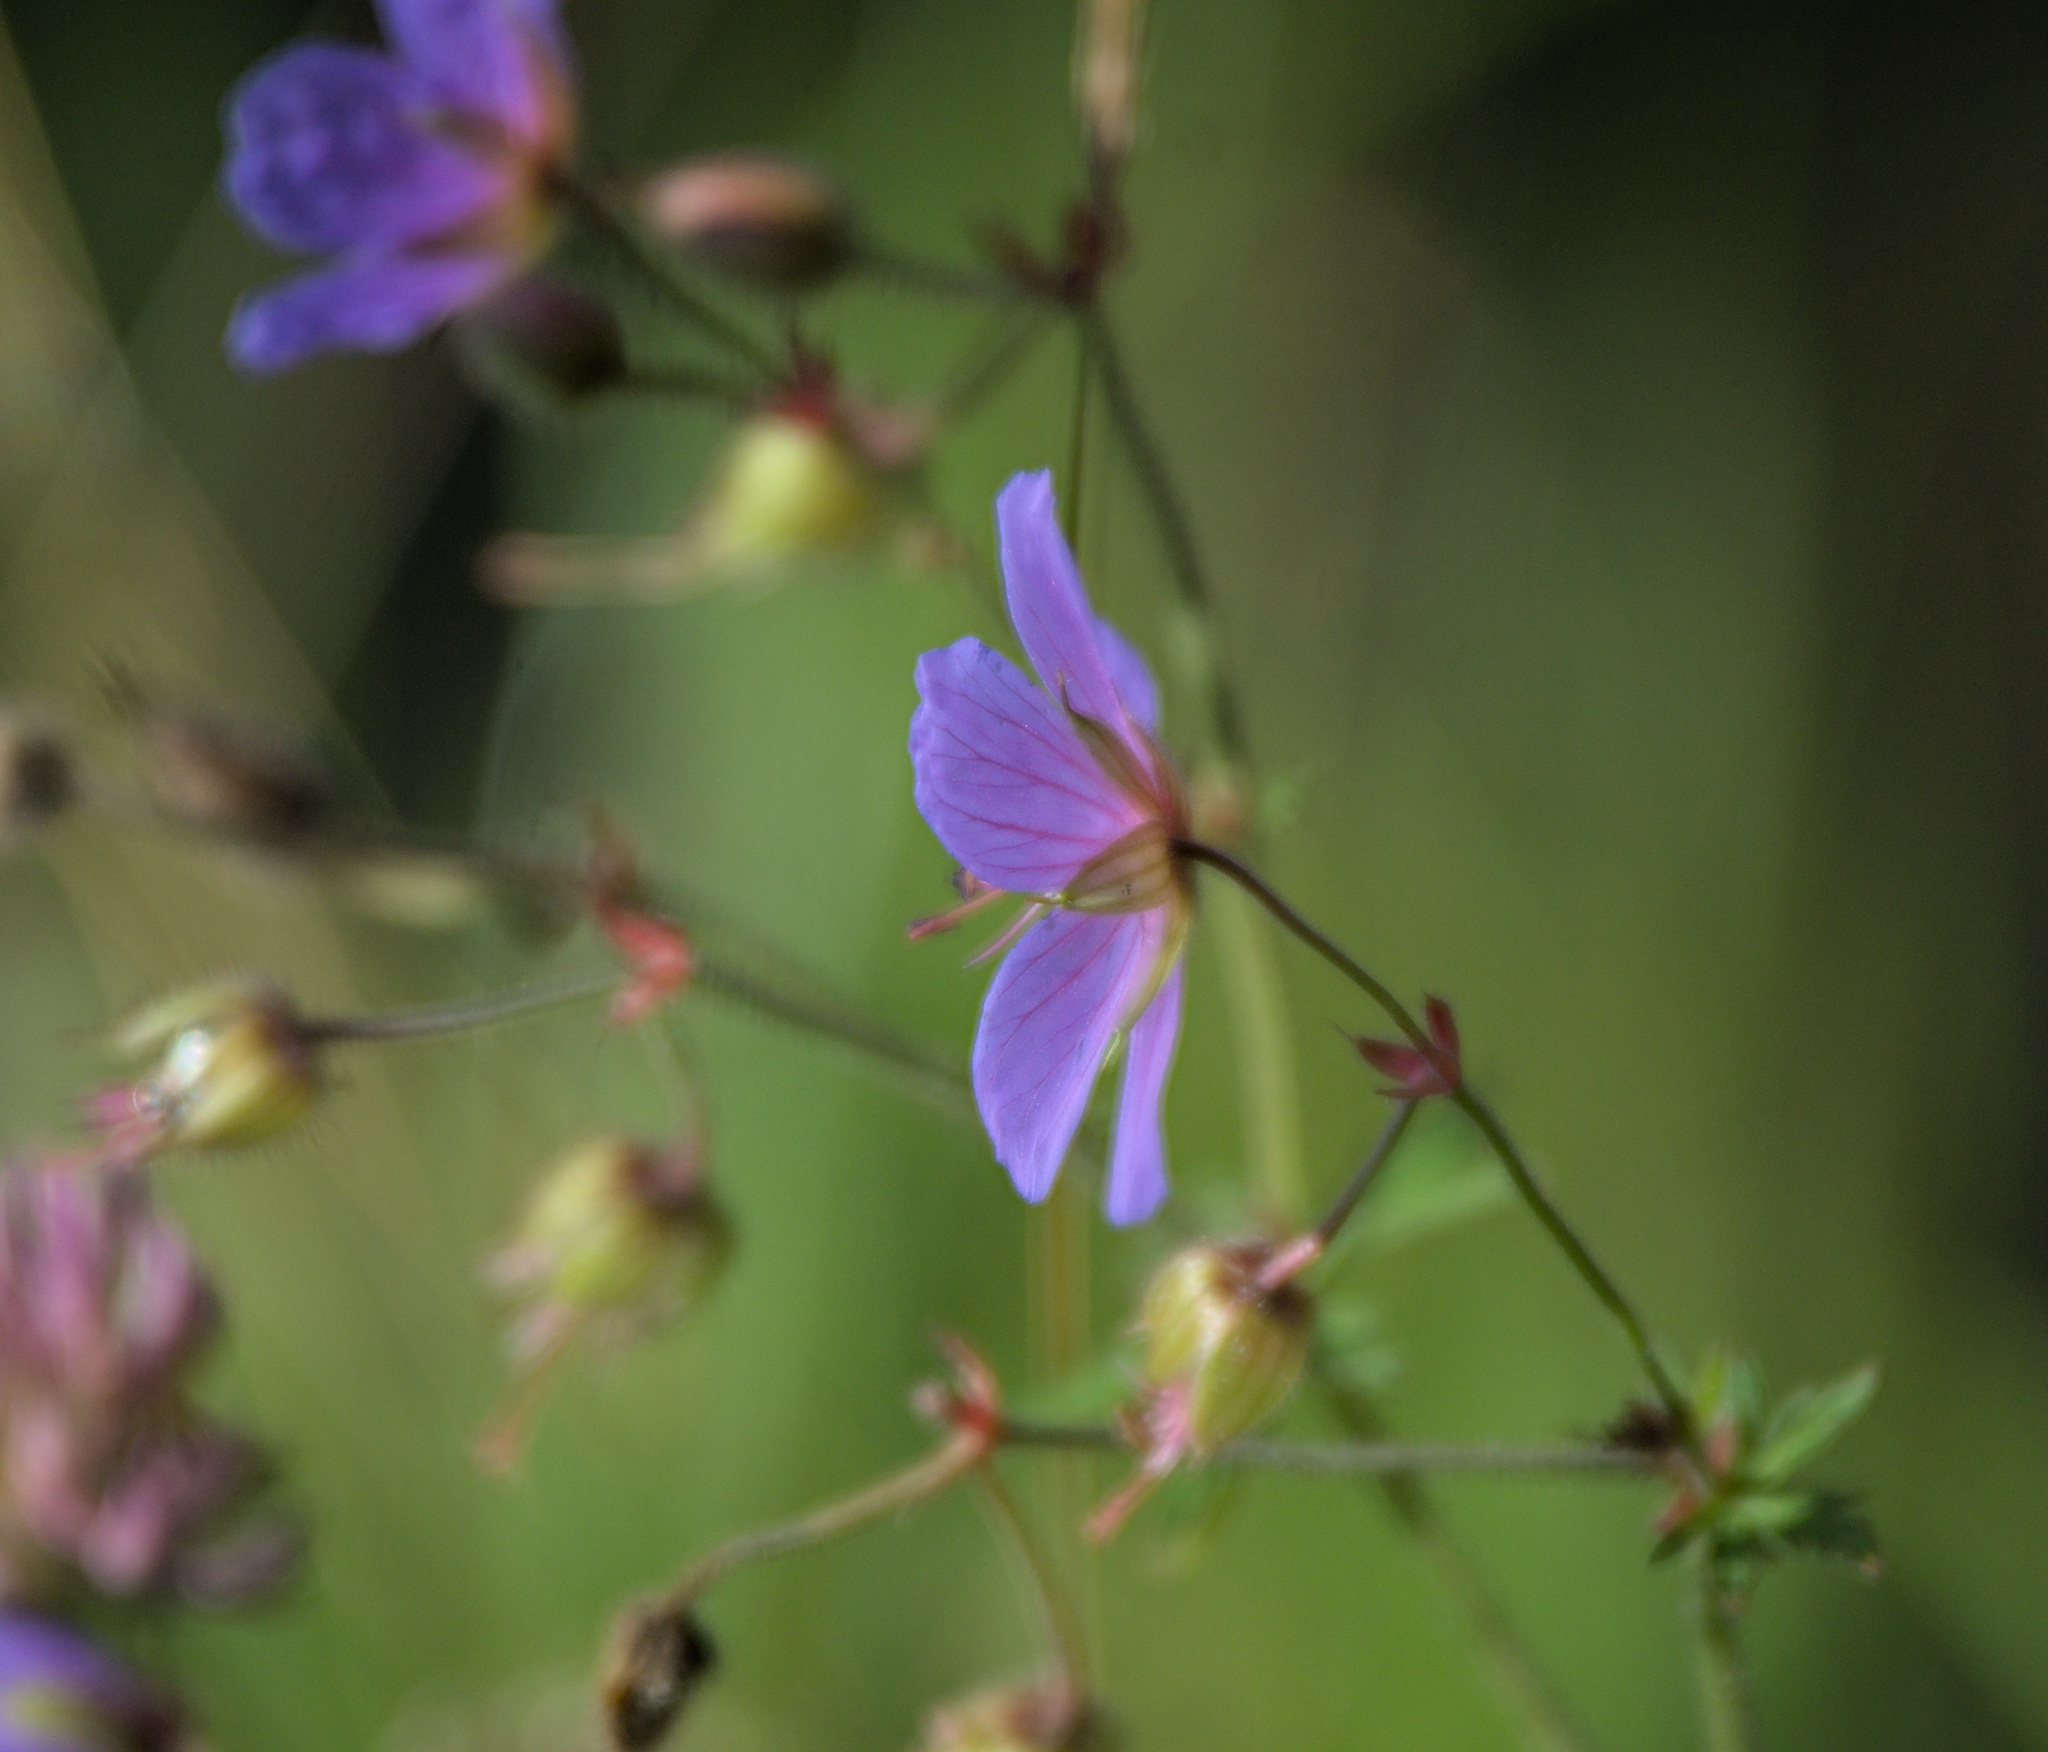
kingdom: Plantae
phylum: Tracheophyta
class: Magnoliopsida
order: Geraniales
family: Geraniaceae
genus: Geranium
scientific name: Geranium pratense
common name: Meadow crane's-bill
